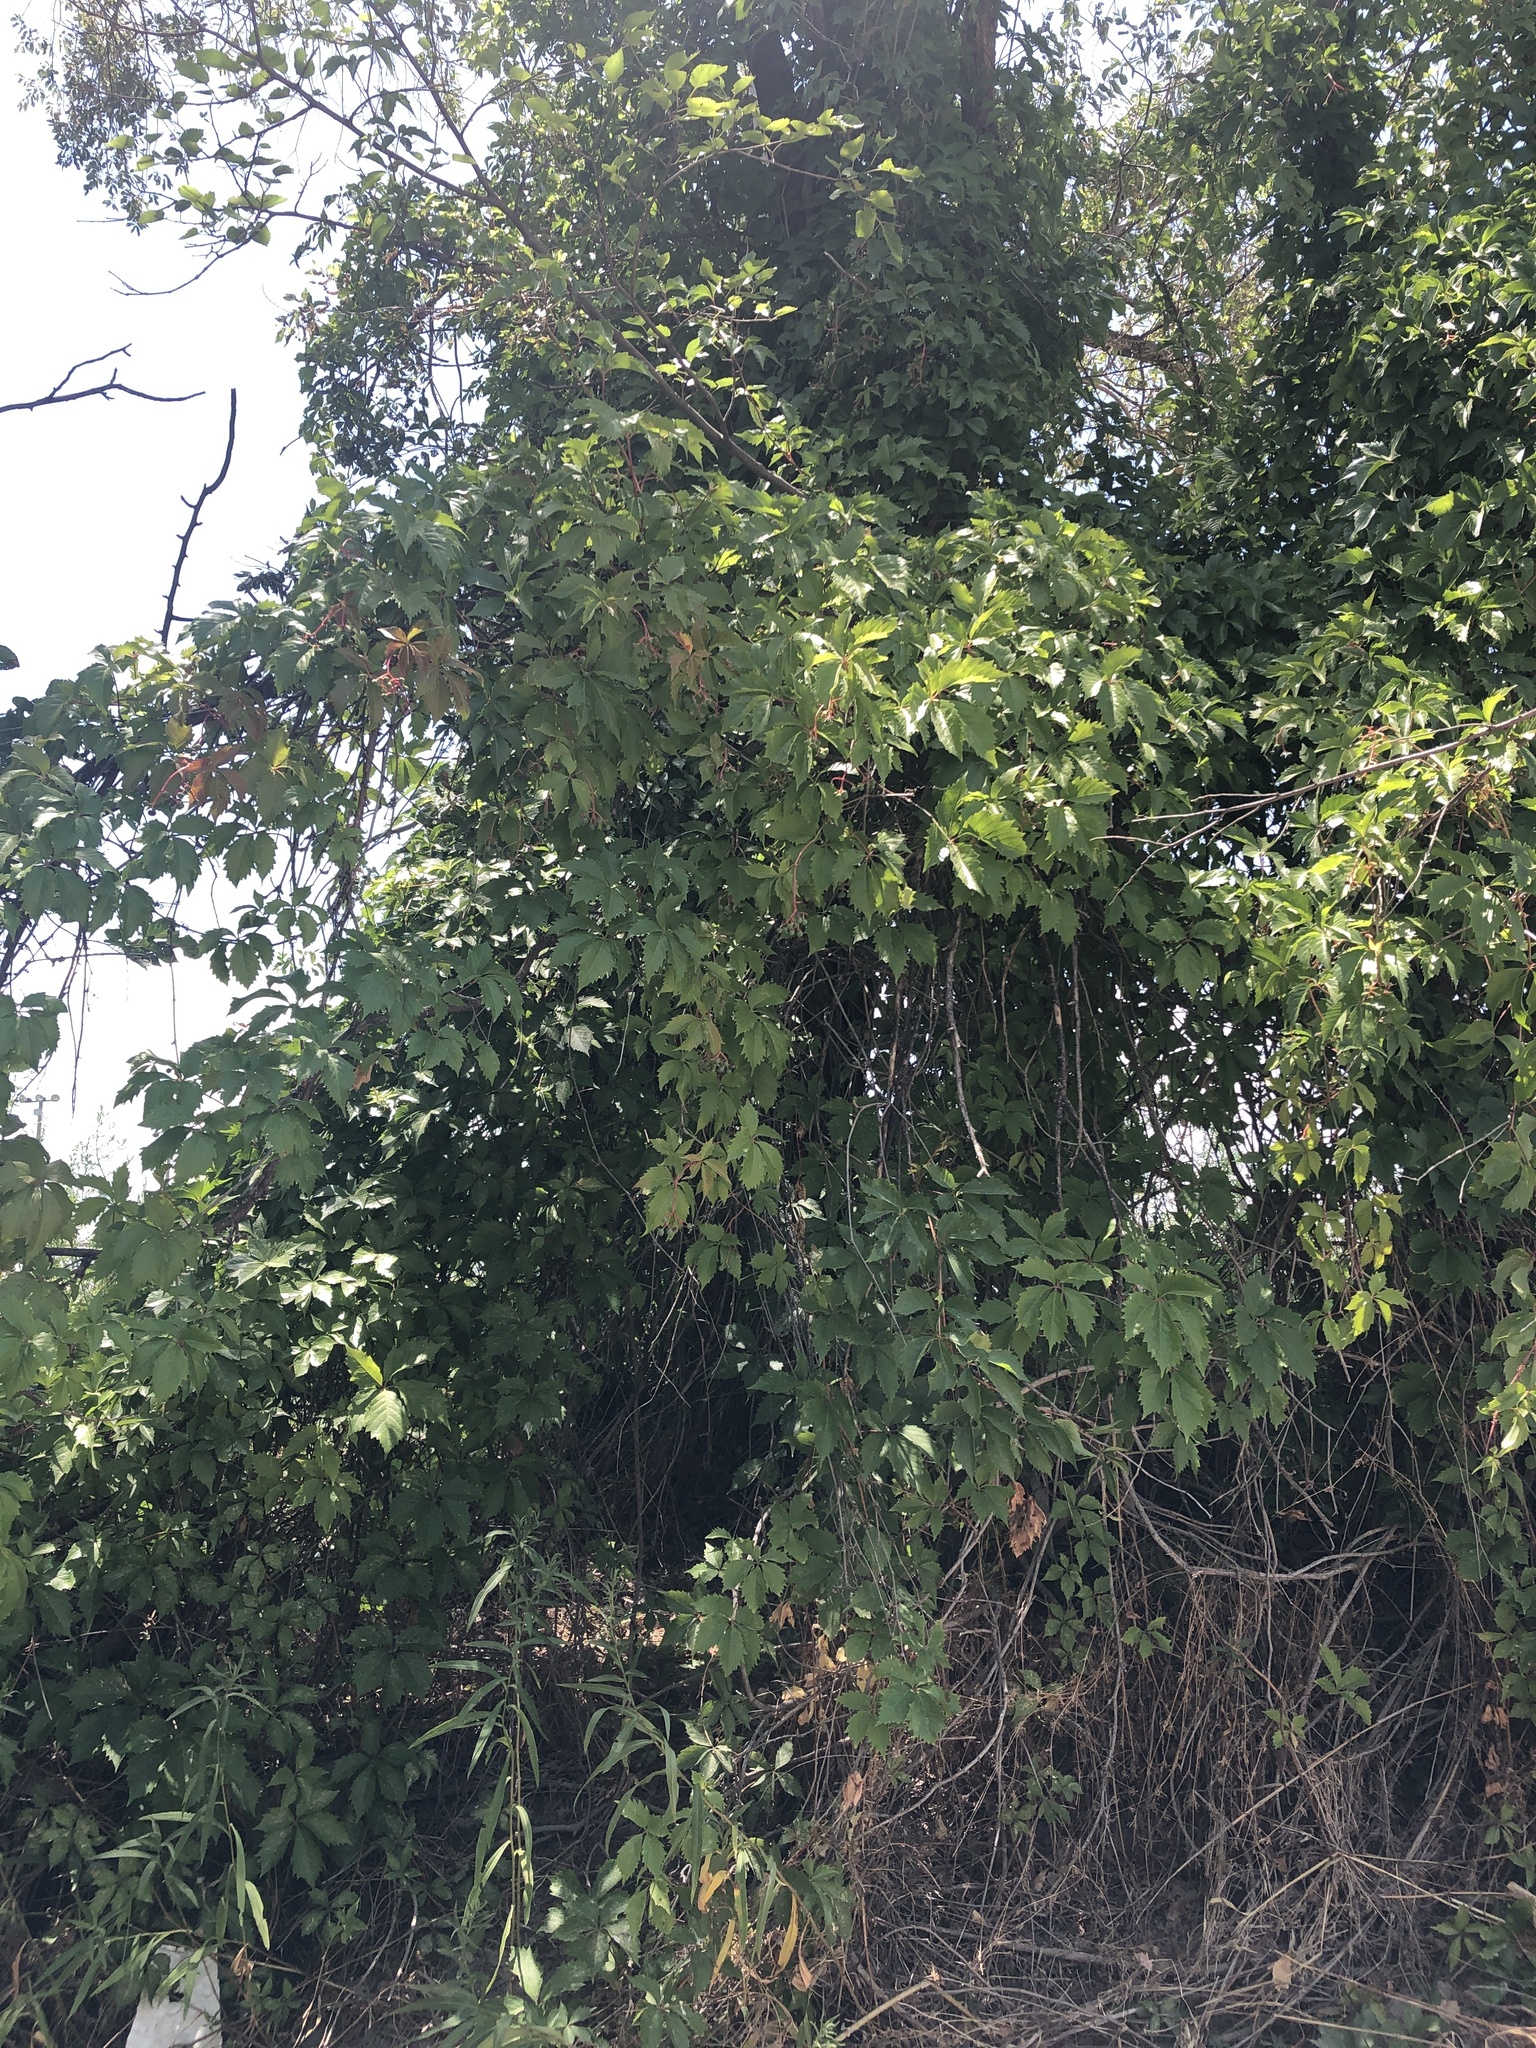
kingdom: Plantae
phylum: Tracheophyta
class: Magnoliopsida
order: Vitales
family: Vitaceae
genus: Parthenocissus
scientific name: Parthenocissus quinquefolia
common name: Virginia-creeper
